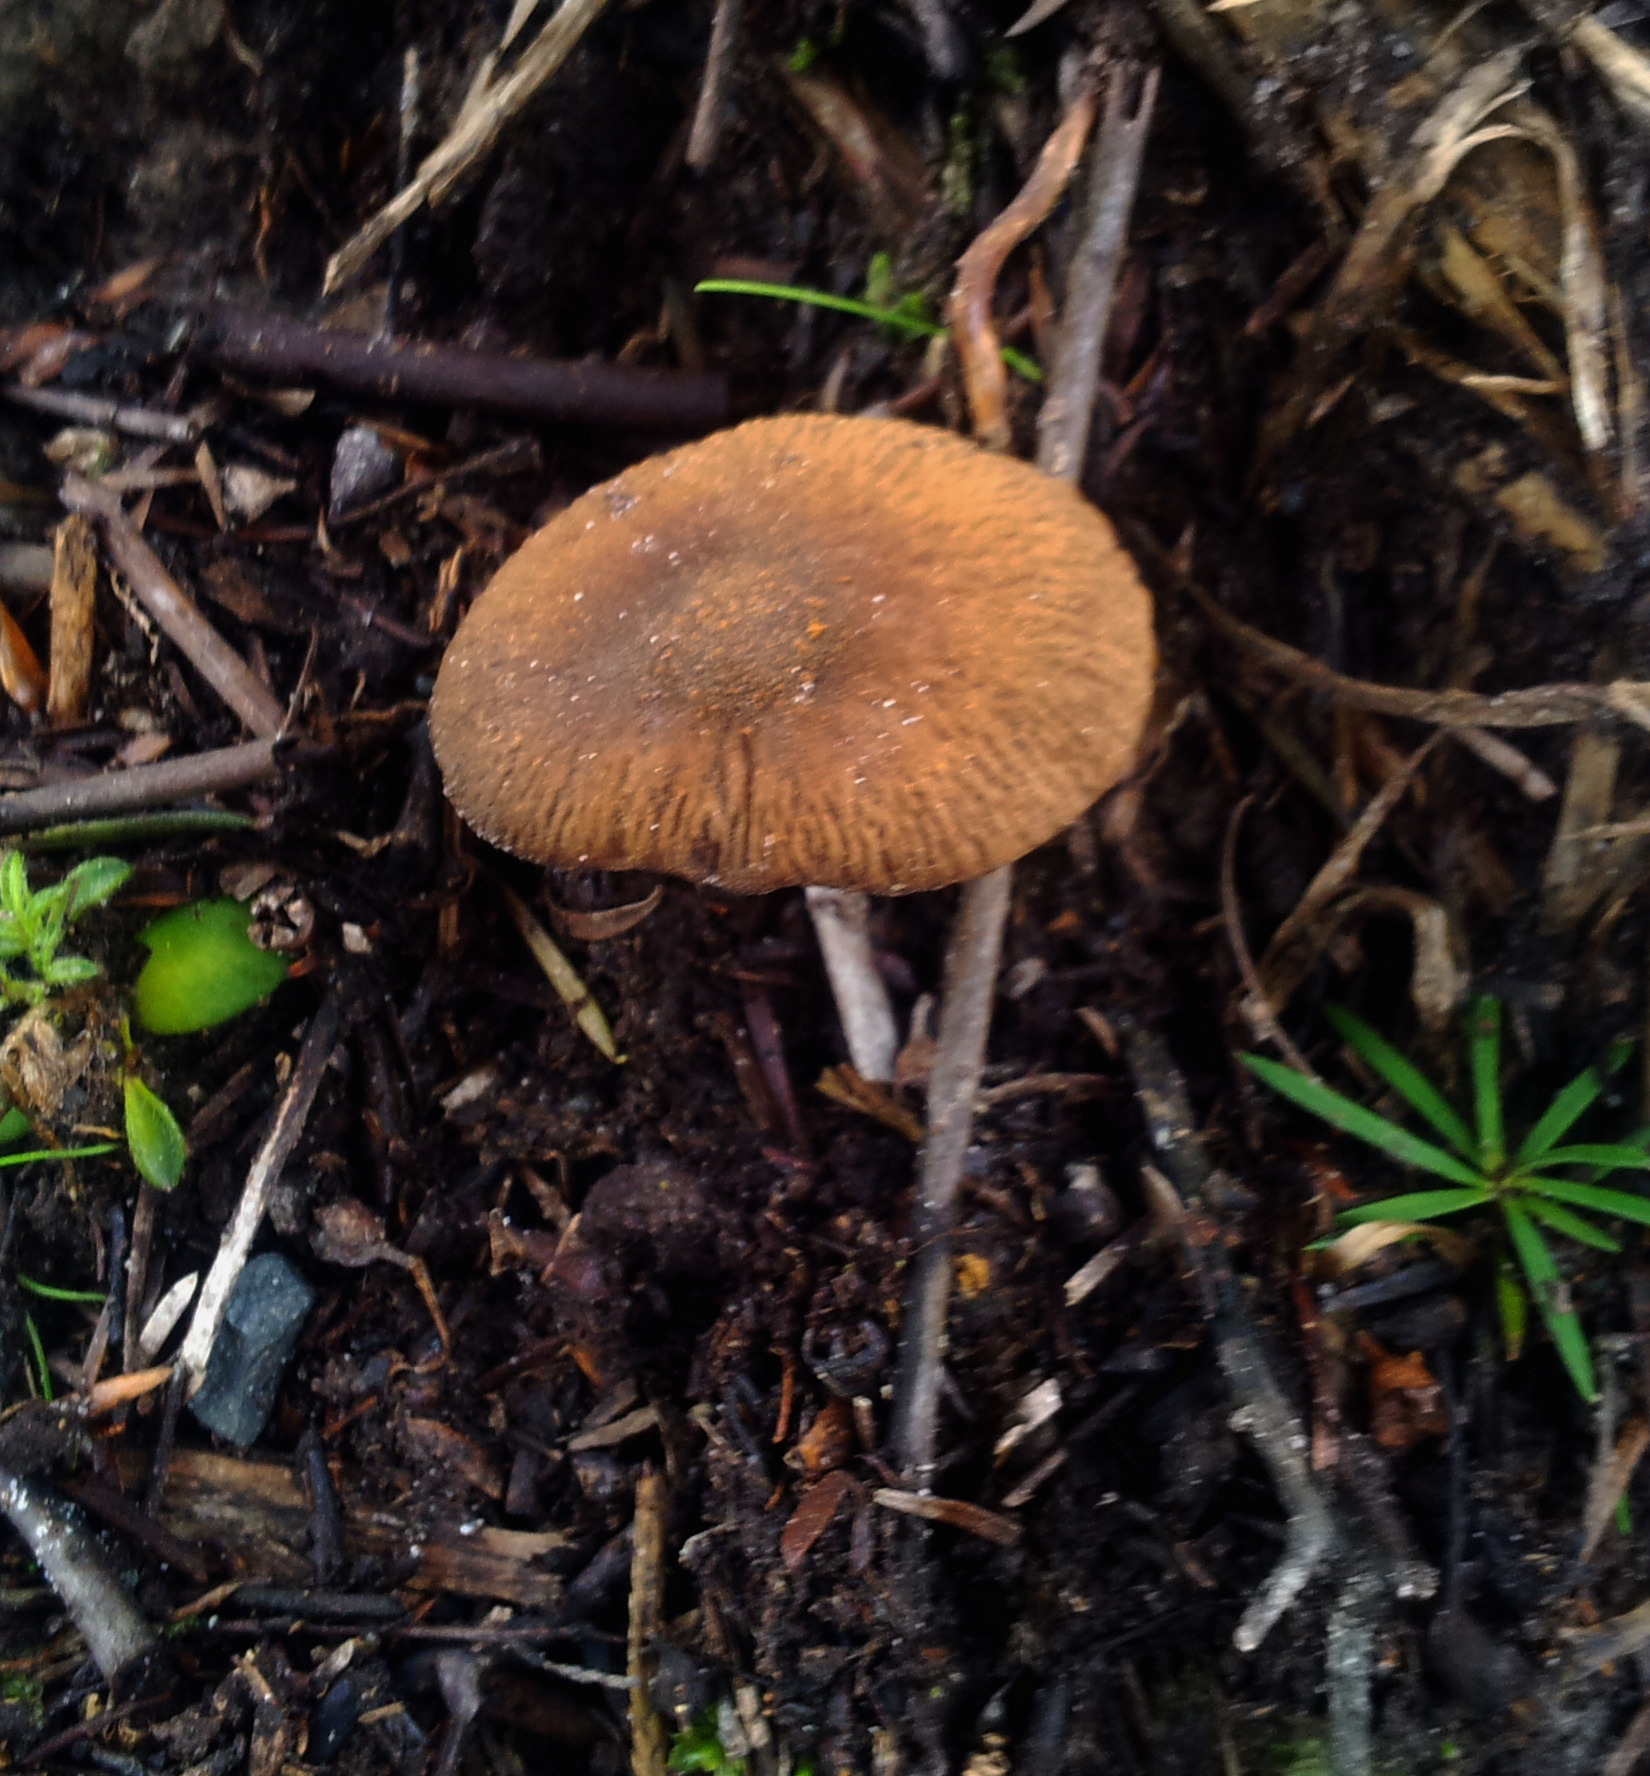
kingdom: Fungi
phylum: Basidiomycota
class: Agaricomycetes
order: Agaricales
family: Bolbitiaceae
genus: Descolea
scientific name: Descolea phlebophora
